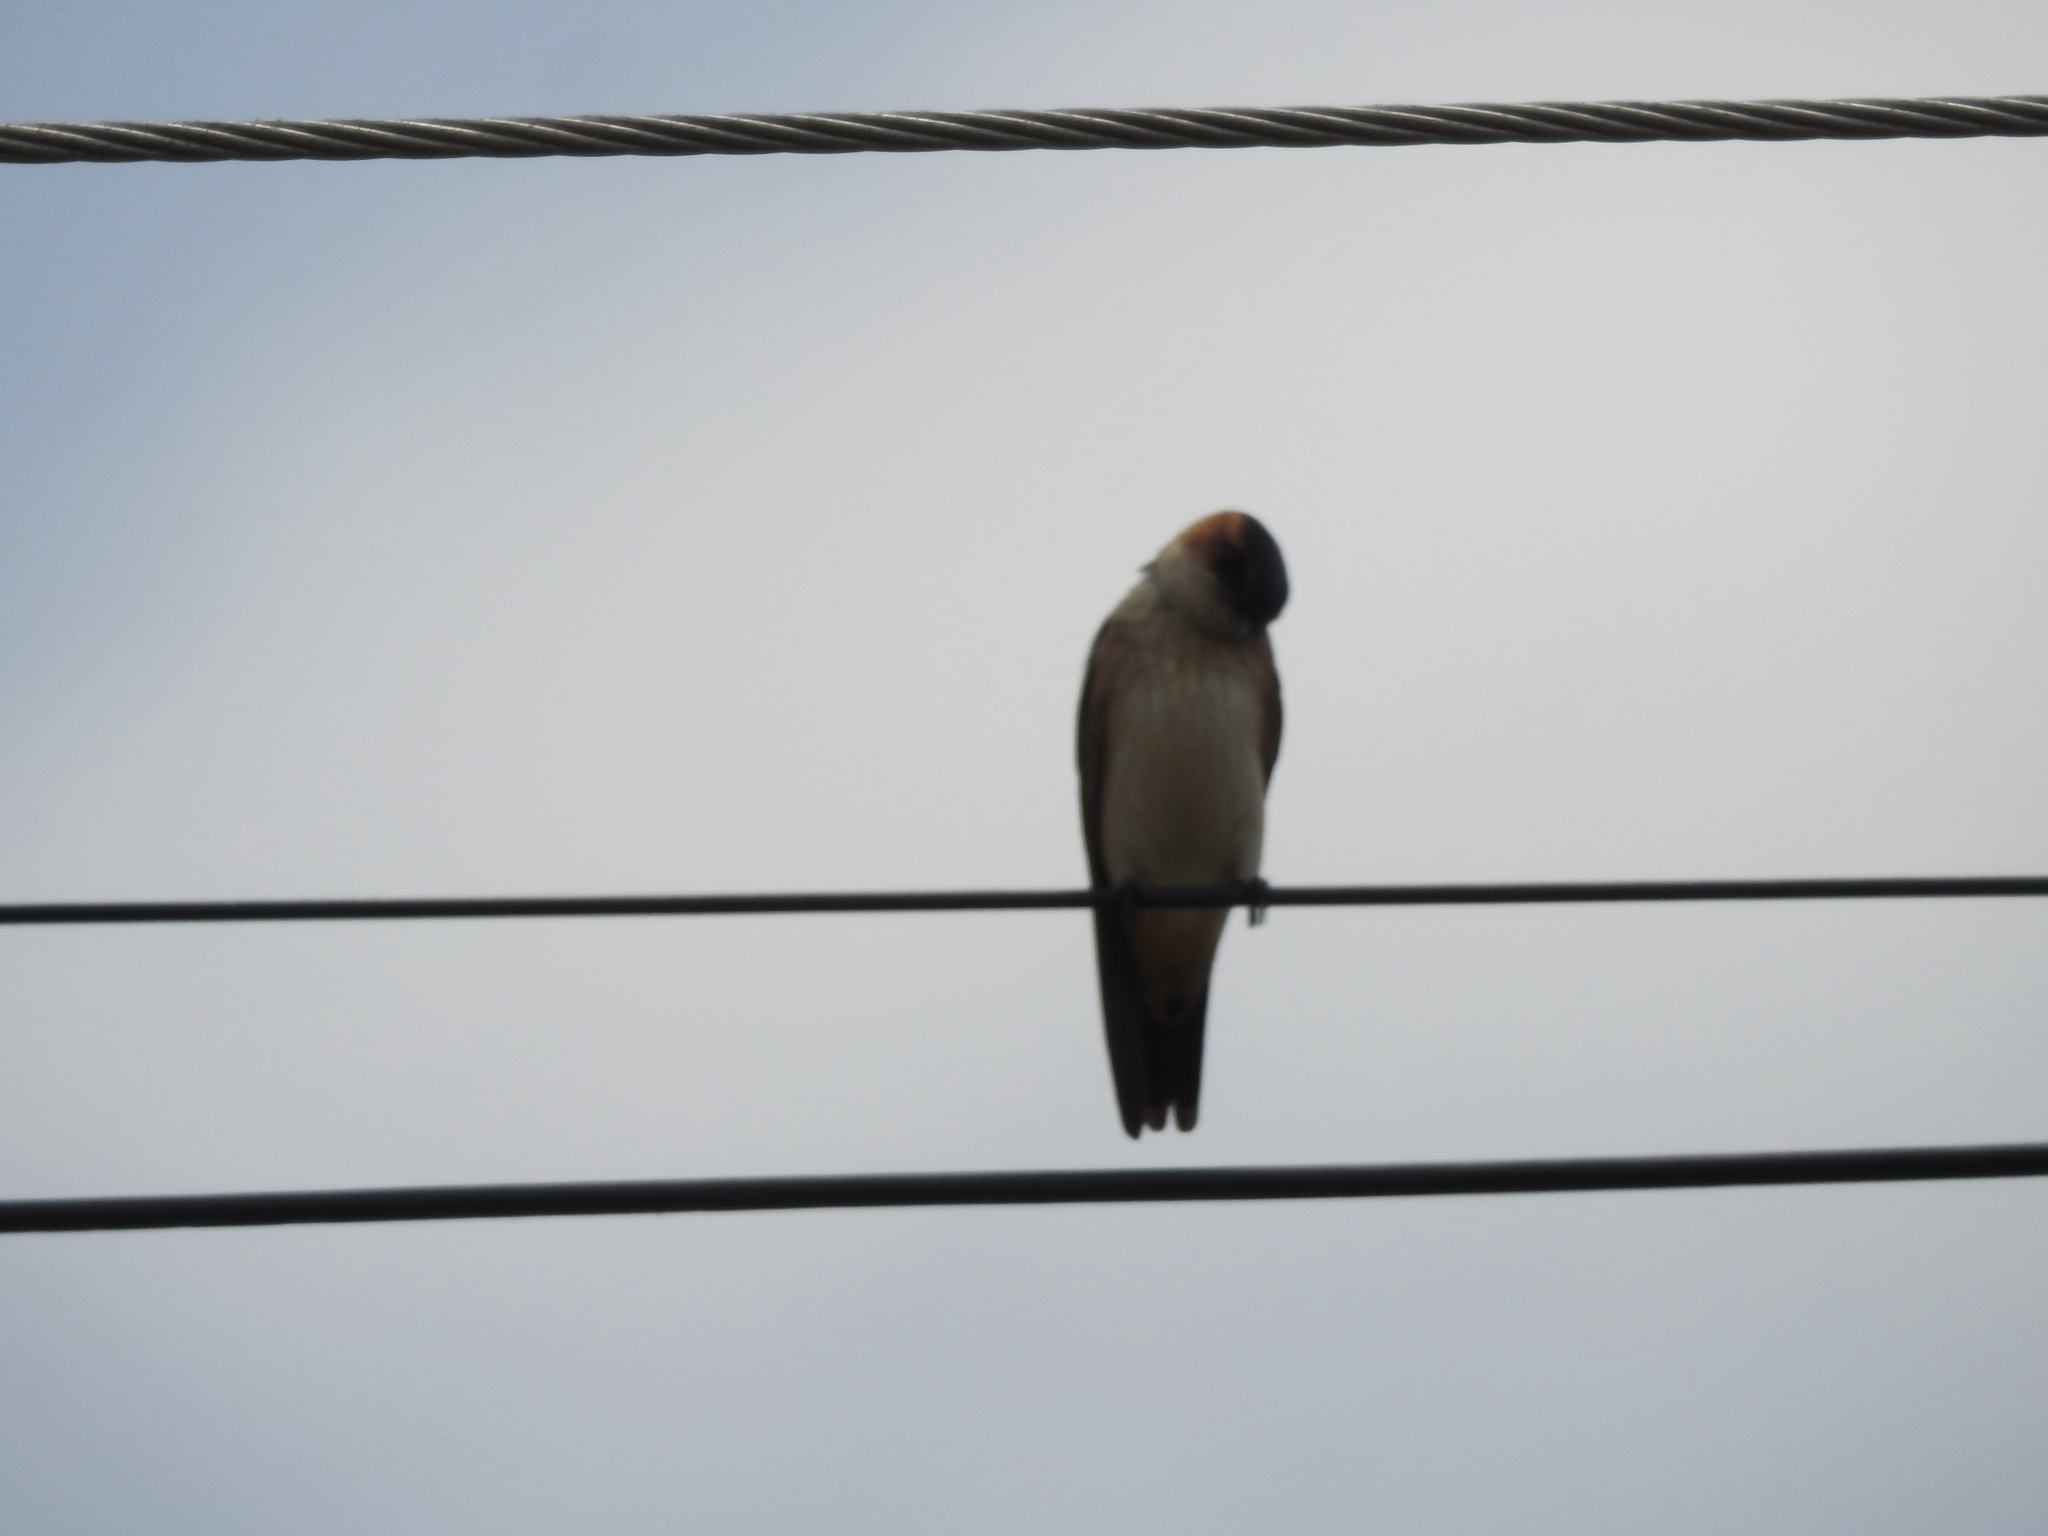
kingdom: Animalia
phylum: Chordata
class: Aves
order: Passeriformes
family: Hirundinidae
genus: Cecropis
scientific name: Cecropis daurica
